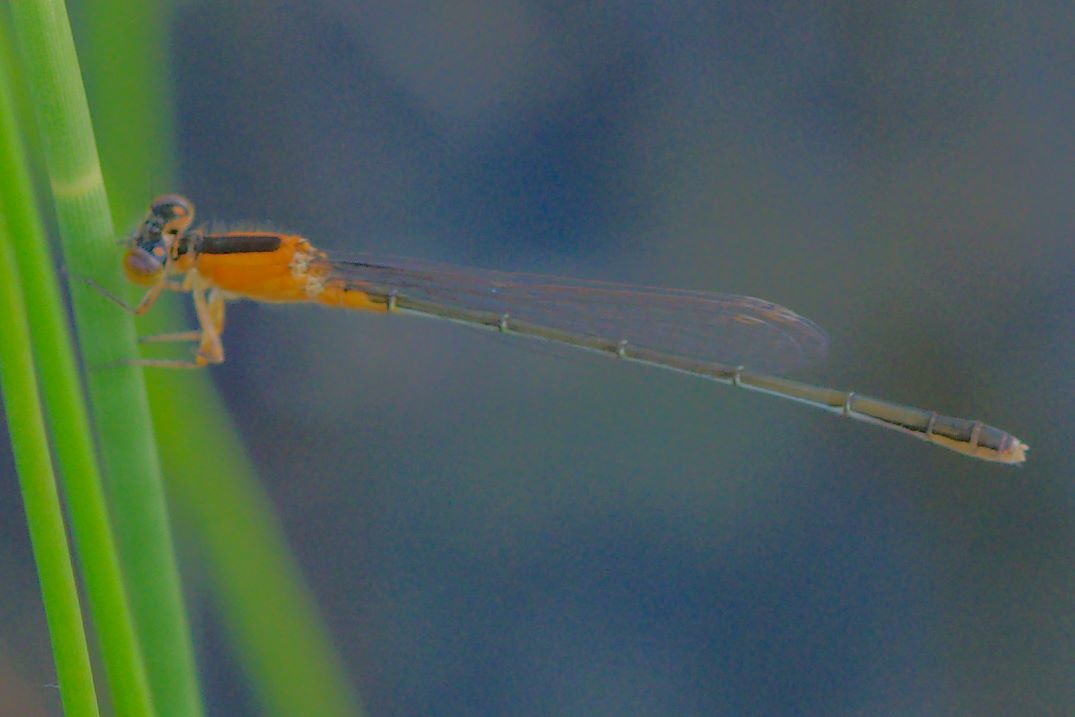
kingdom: Animalia
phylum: Arthropoda
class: Insecta
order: Odonata
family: Coenagrionidae
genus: Ischnura
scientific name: Ischnura ramburii
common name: Rambur's forktail
